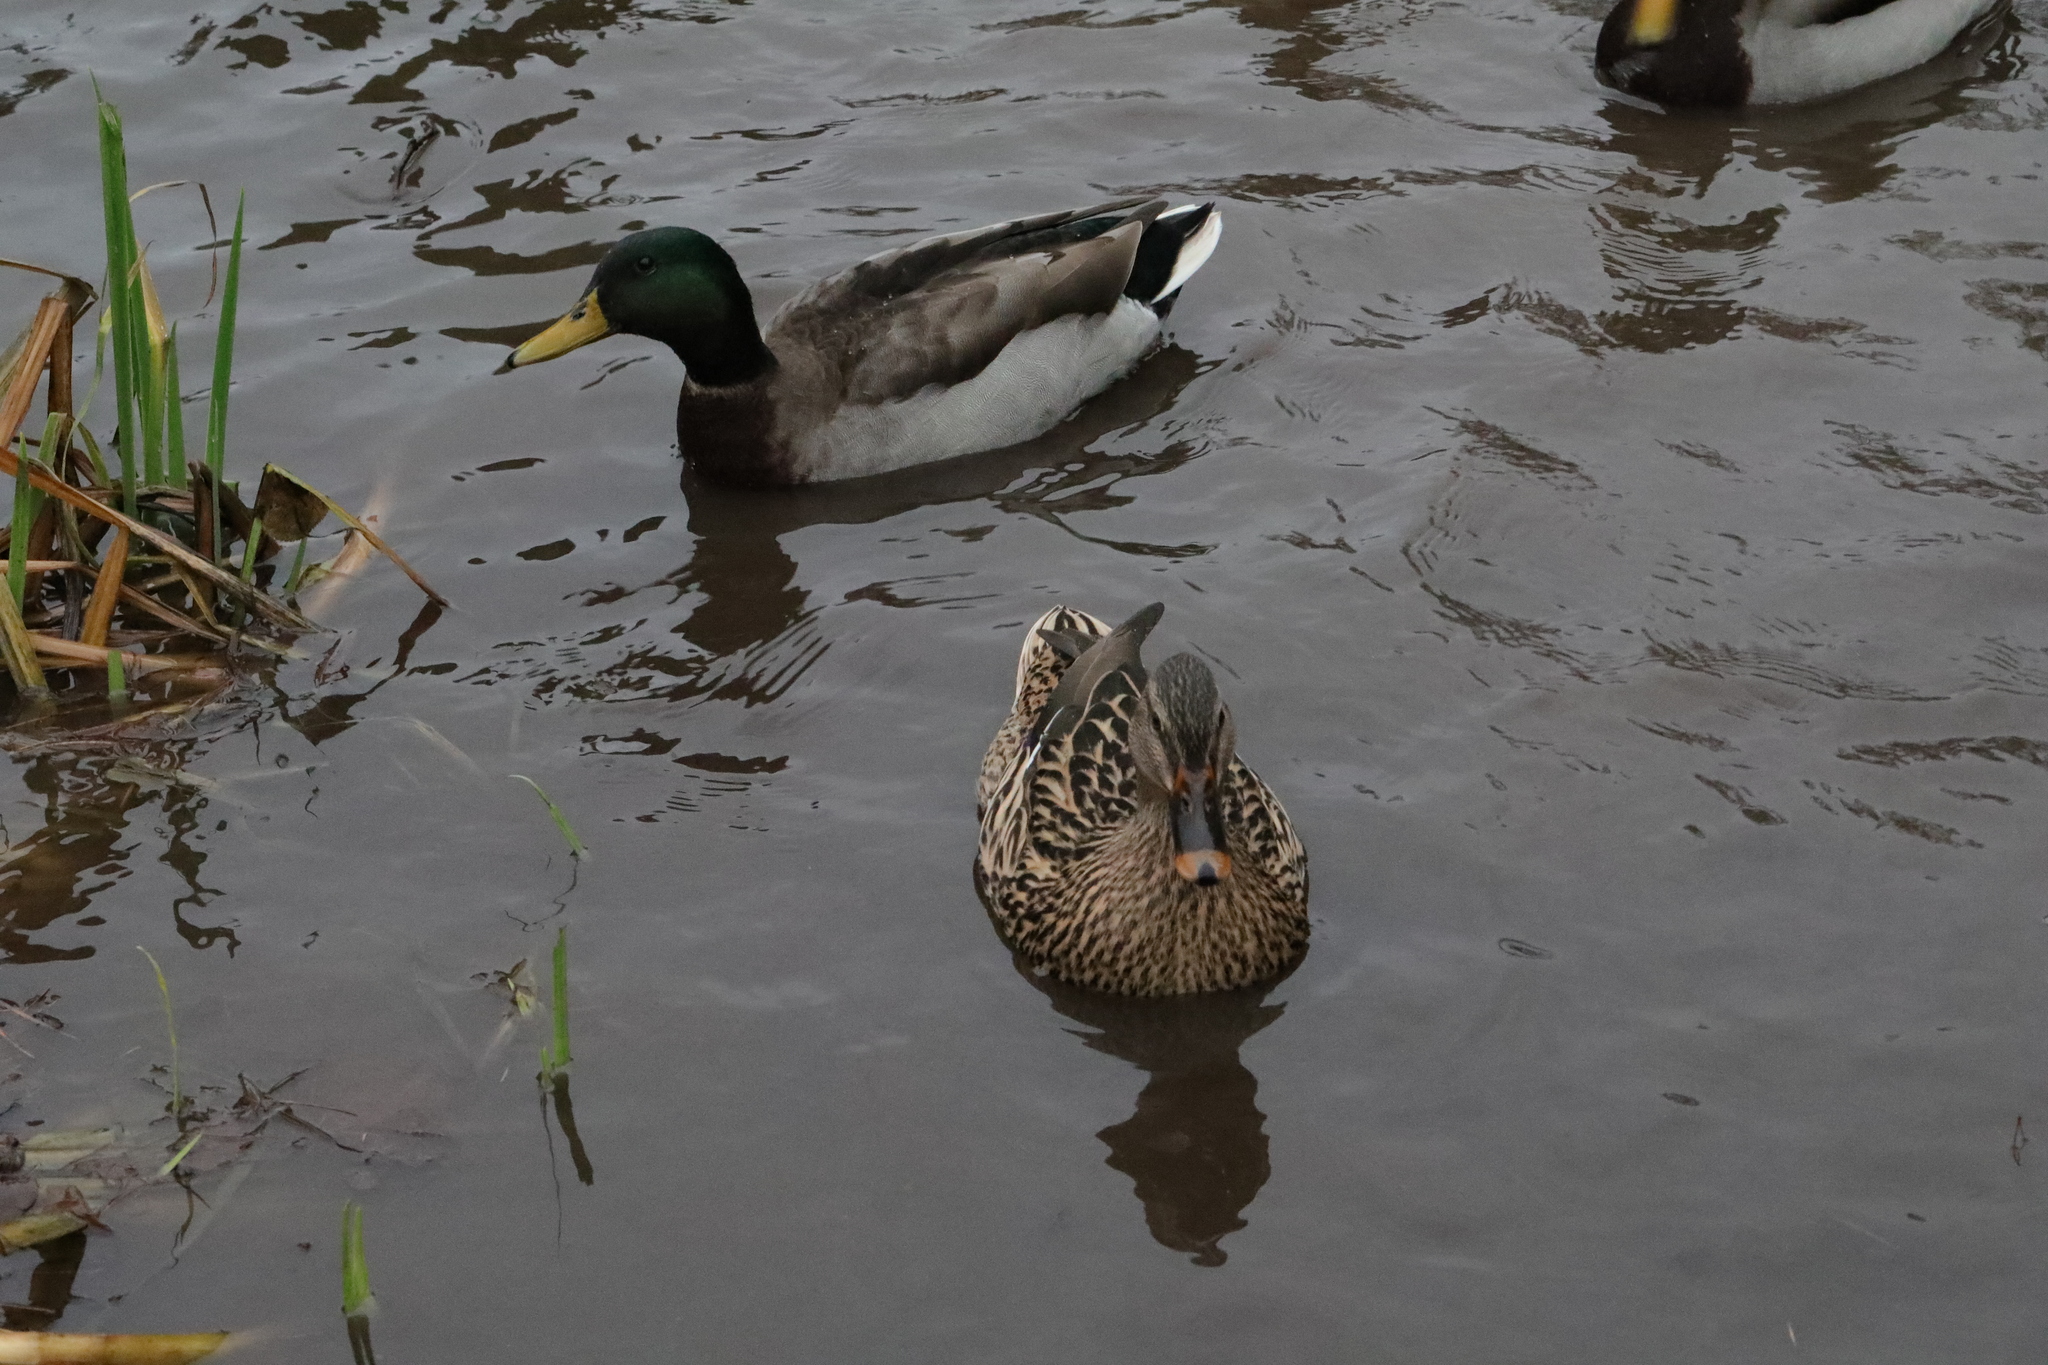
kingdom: Animalia
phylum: Chordata
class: Aves
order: Anseriformes
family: Anatidae
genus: Anas
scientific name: Anas platyrhynchos
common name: Mallard
